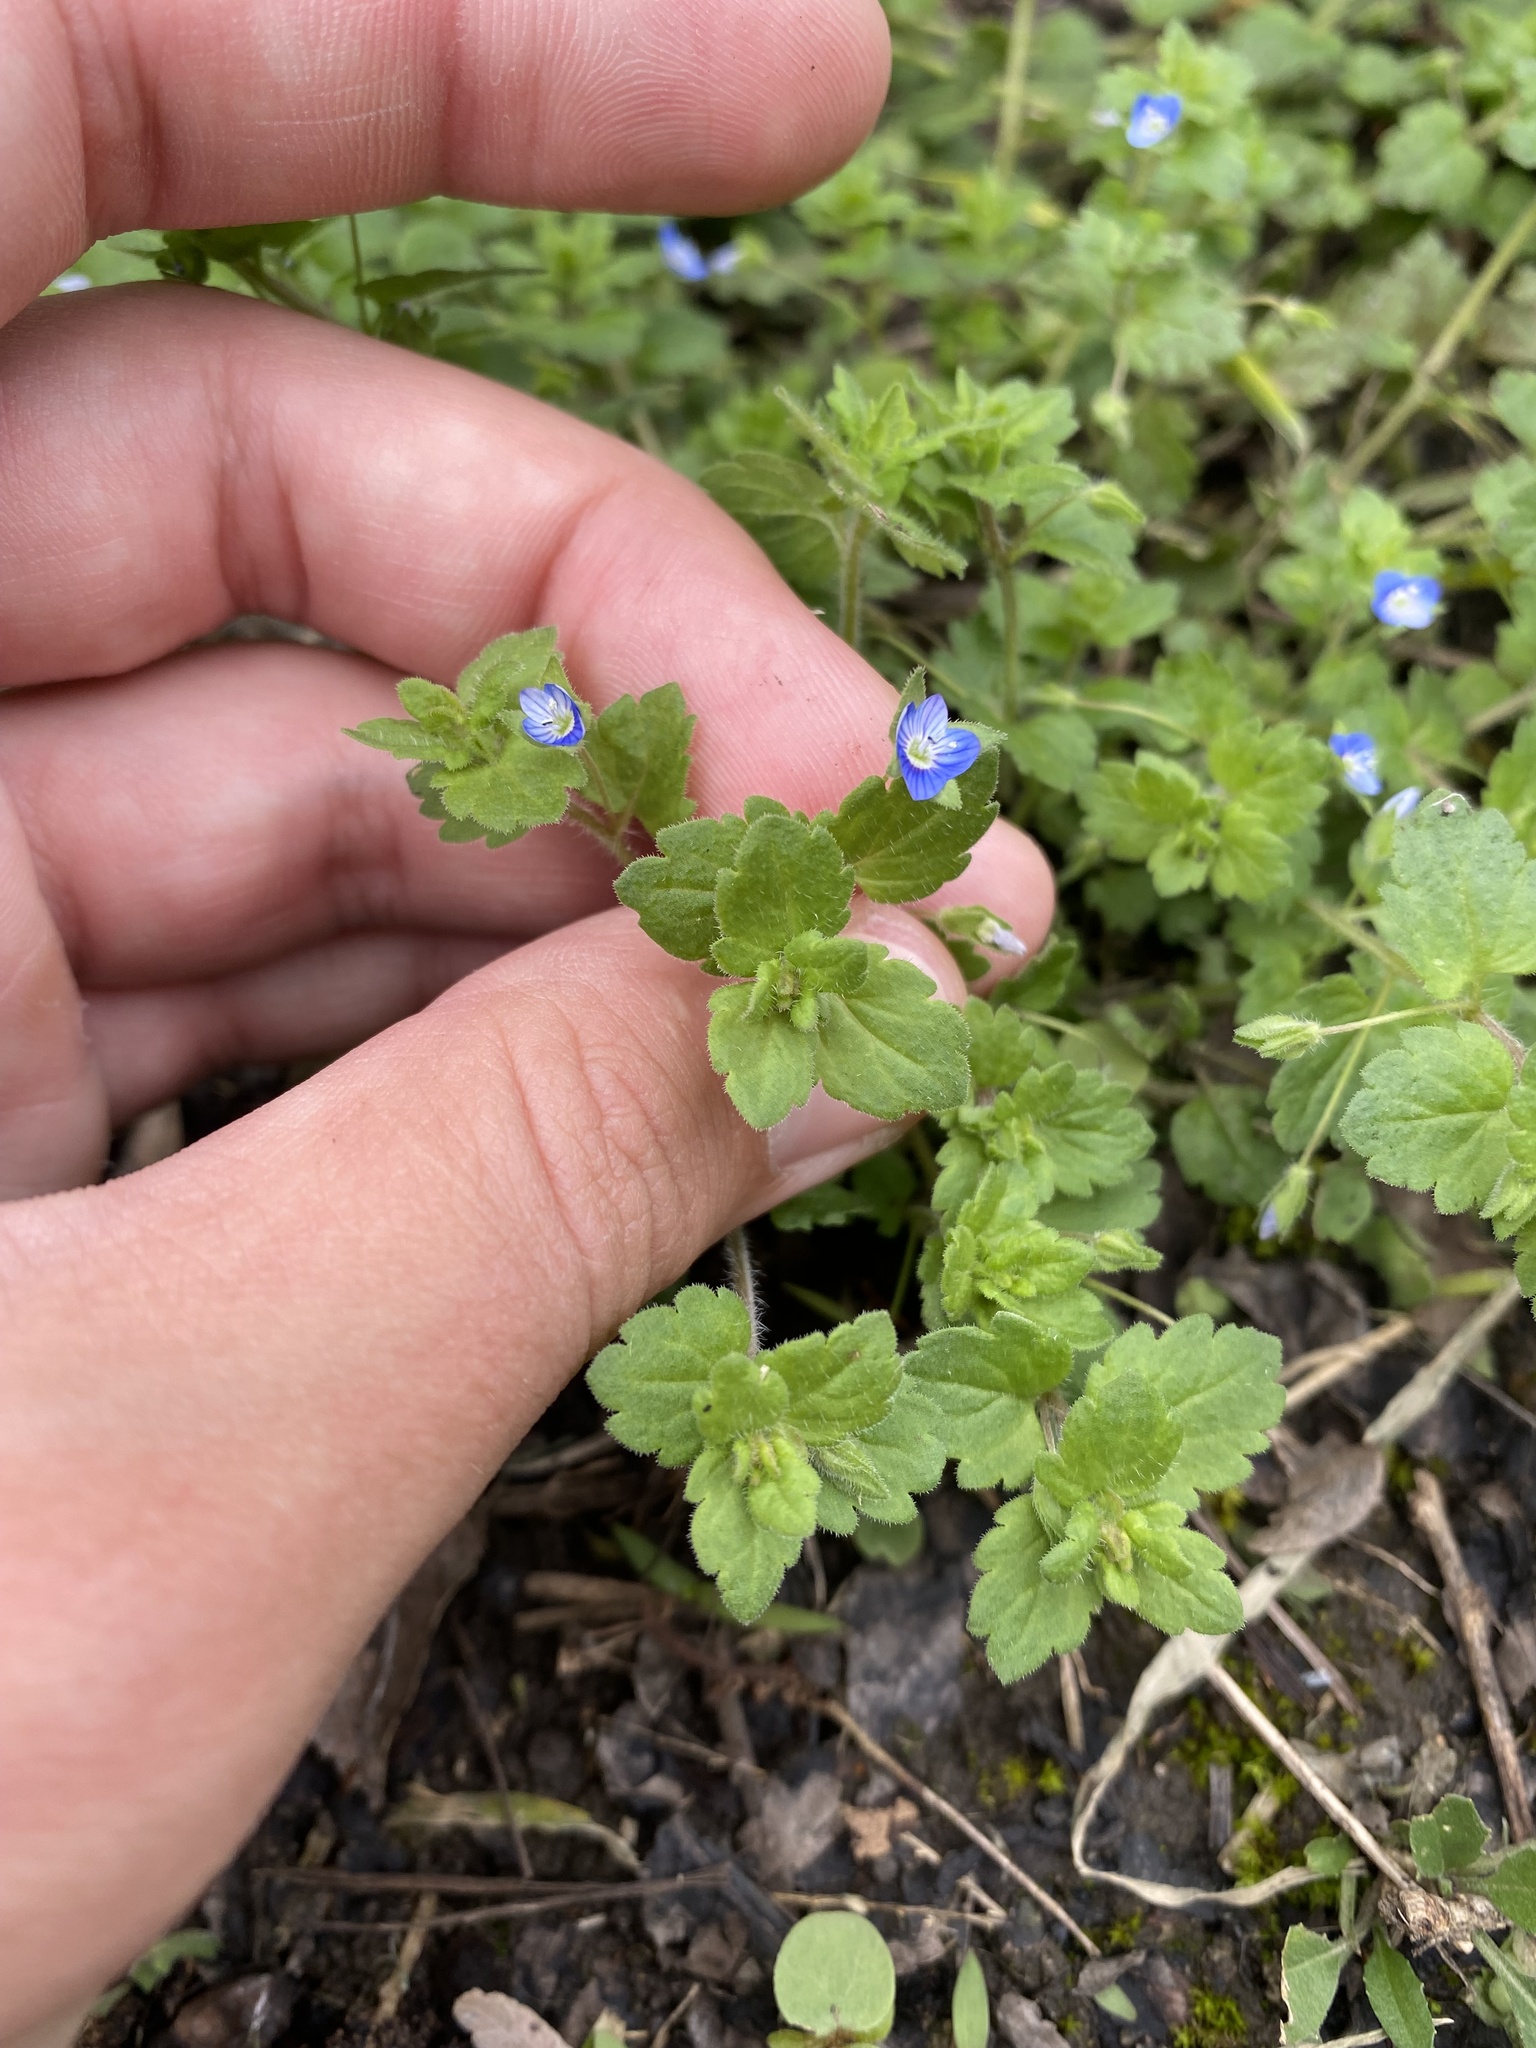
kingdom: Plantae
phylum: Tracheophyta
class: Magnoliopsida
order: Lamiales
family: Plantaginaceae
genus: Veronica
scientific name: Veronica polita
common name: Grey field-speedwell
